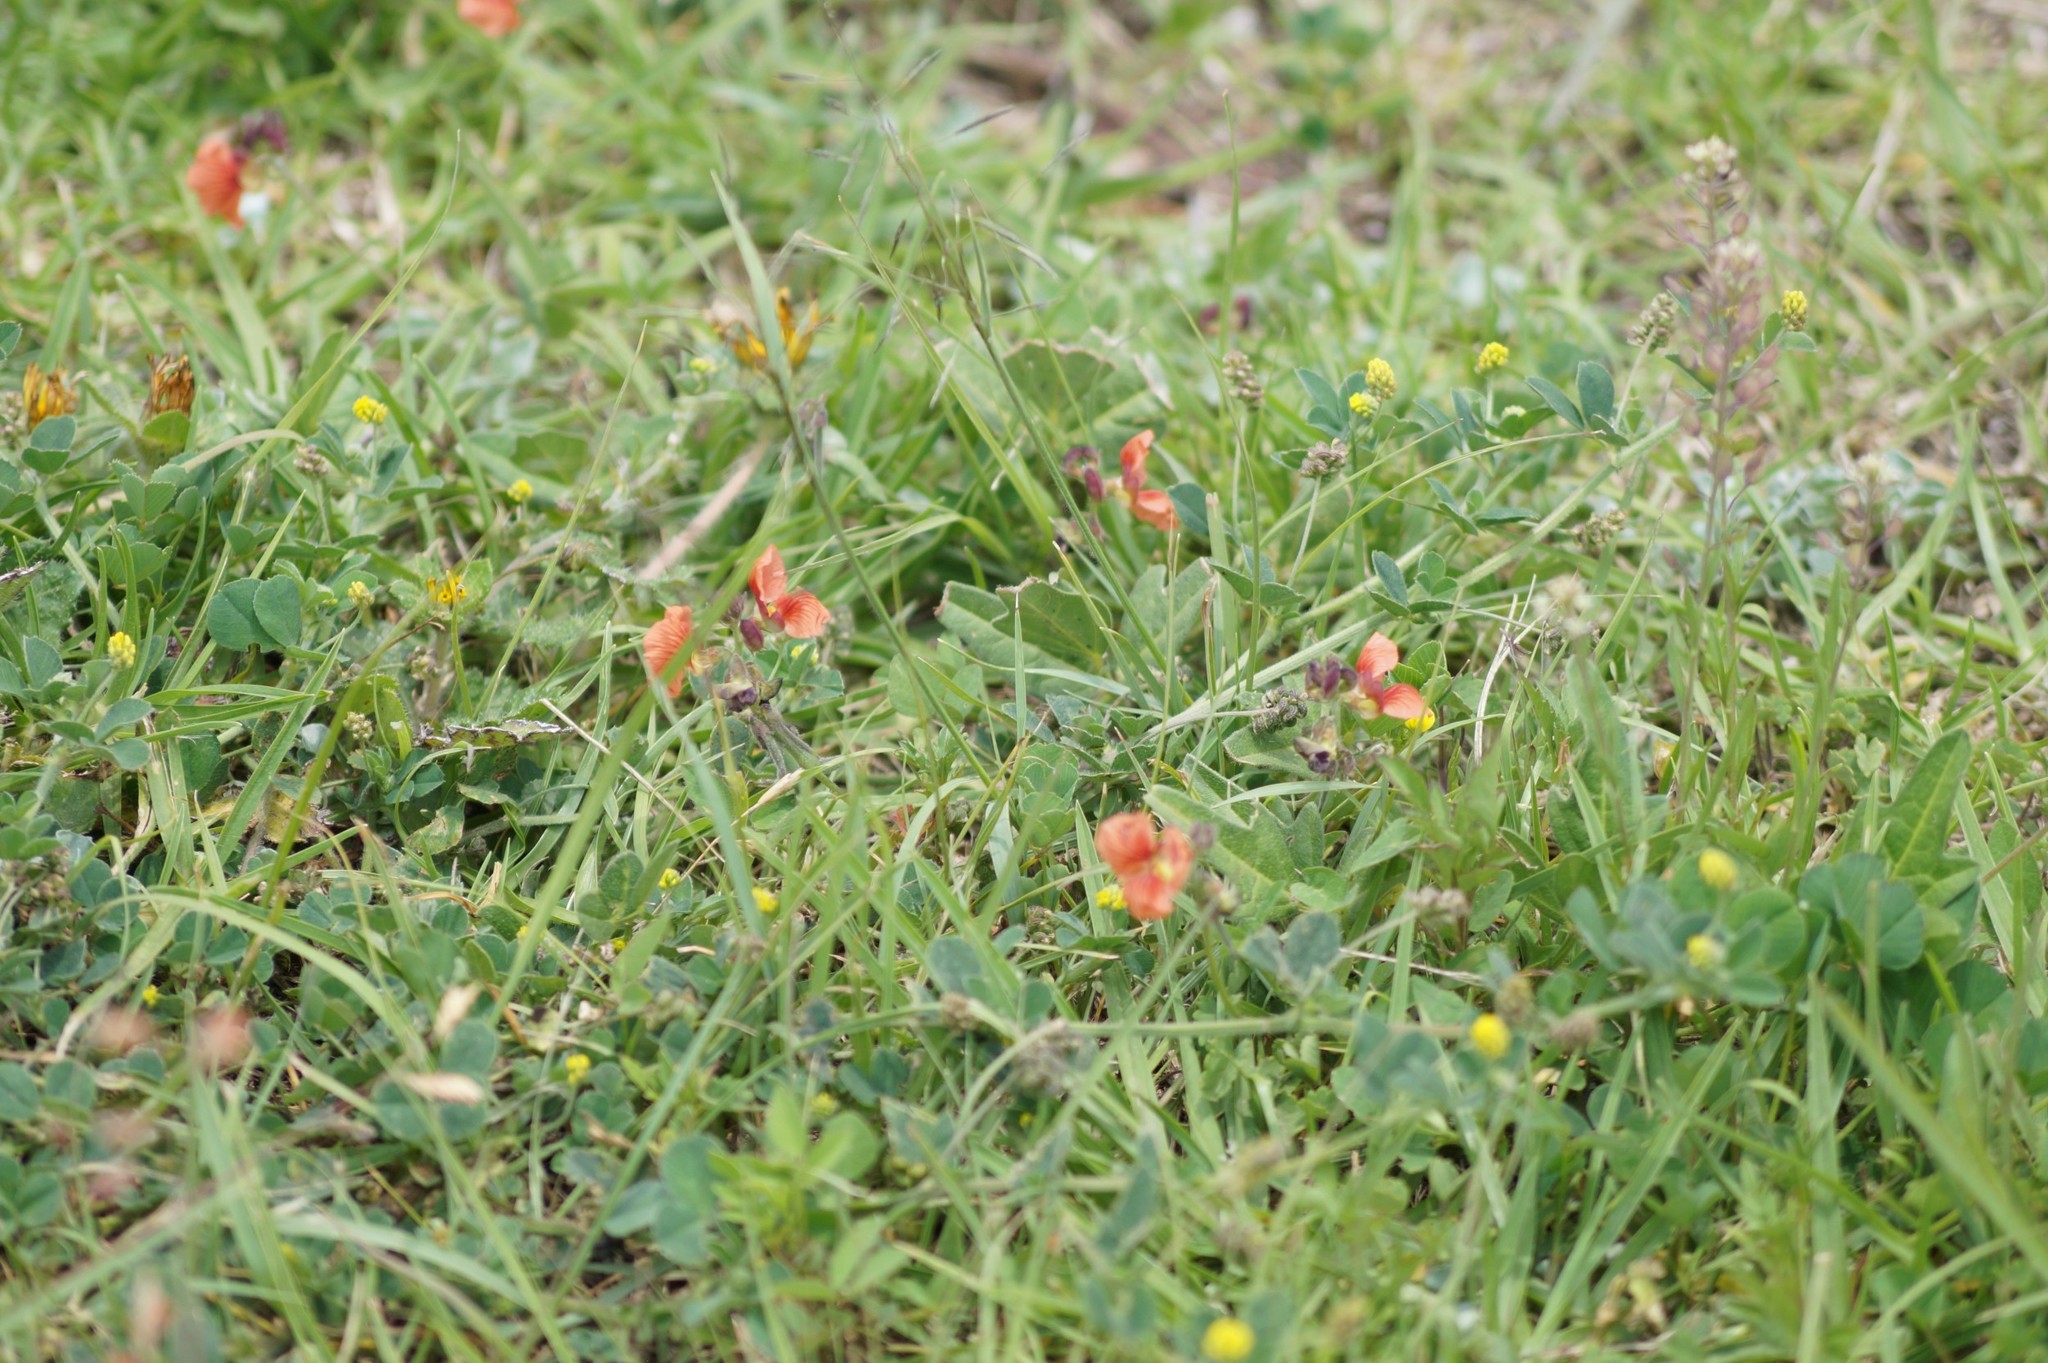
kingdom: Plantae
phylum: Tracheophyta
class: Magnoliopsida
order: Fabales
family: Fabaceae
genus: Macroptilium
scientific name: Macroptilium gibbosifolium
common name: Variableleaf bushbean
